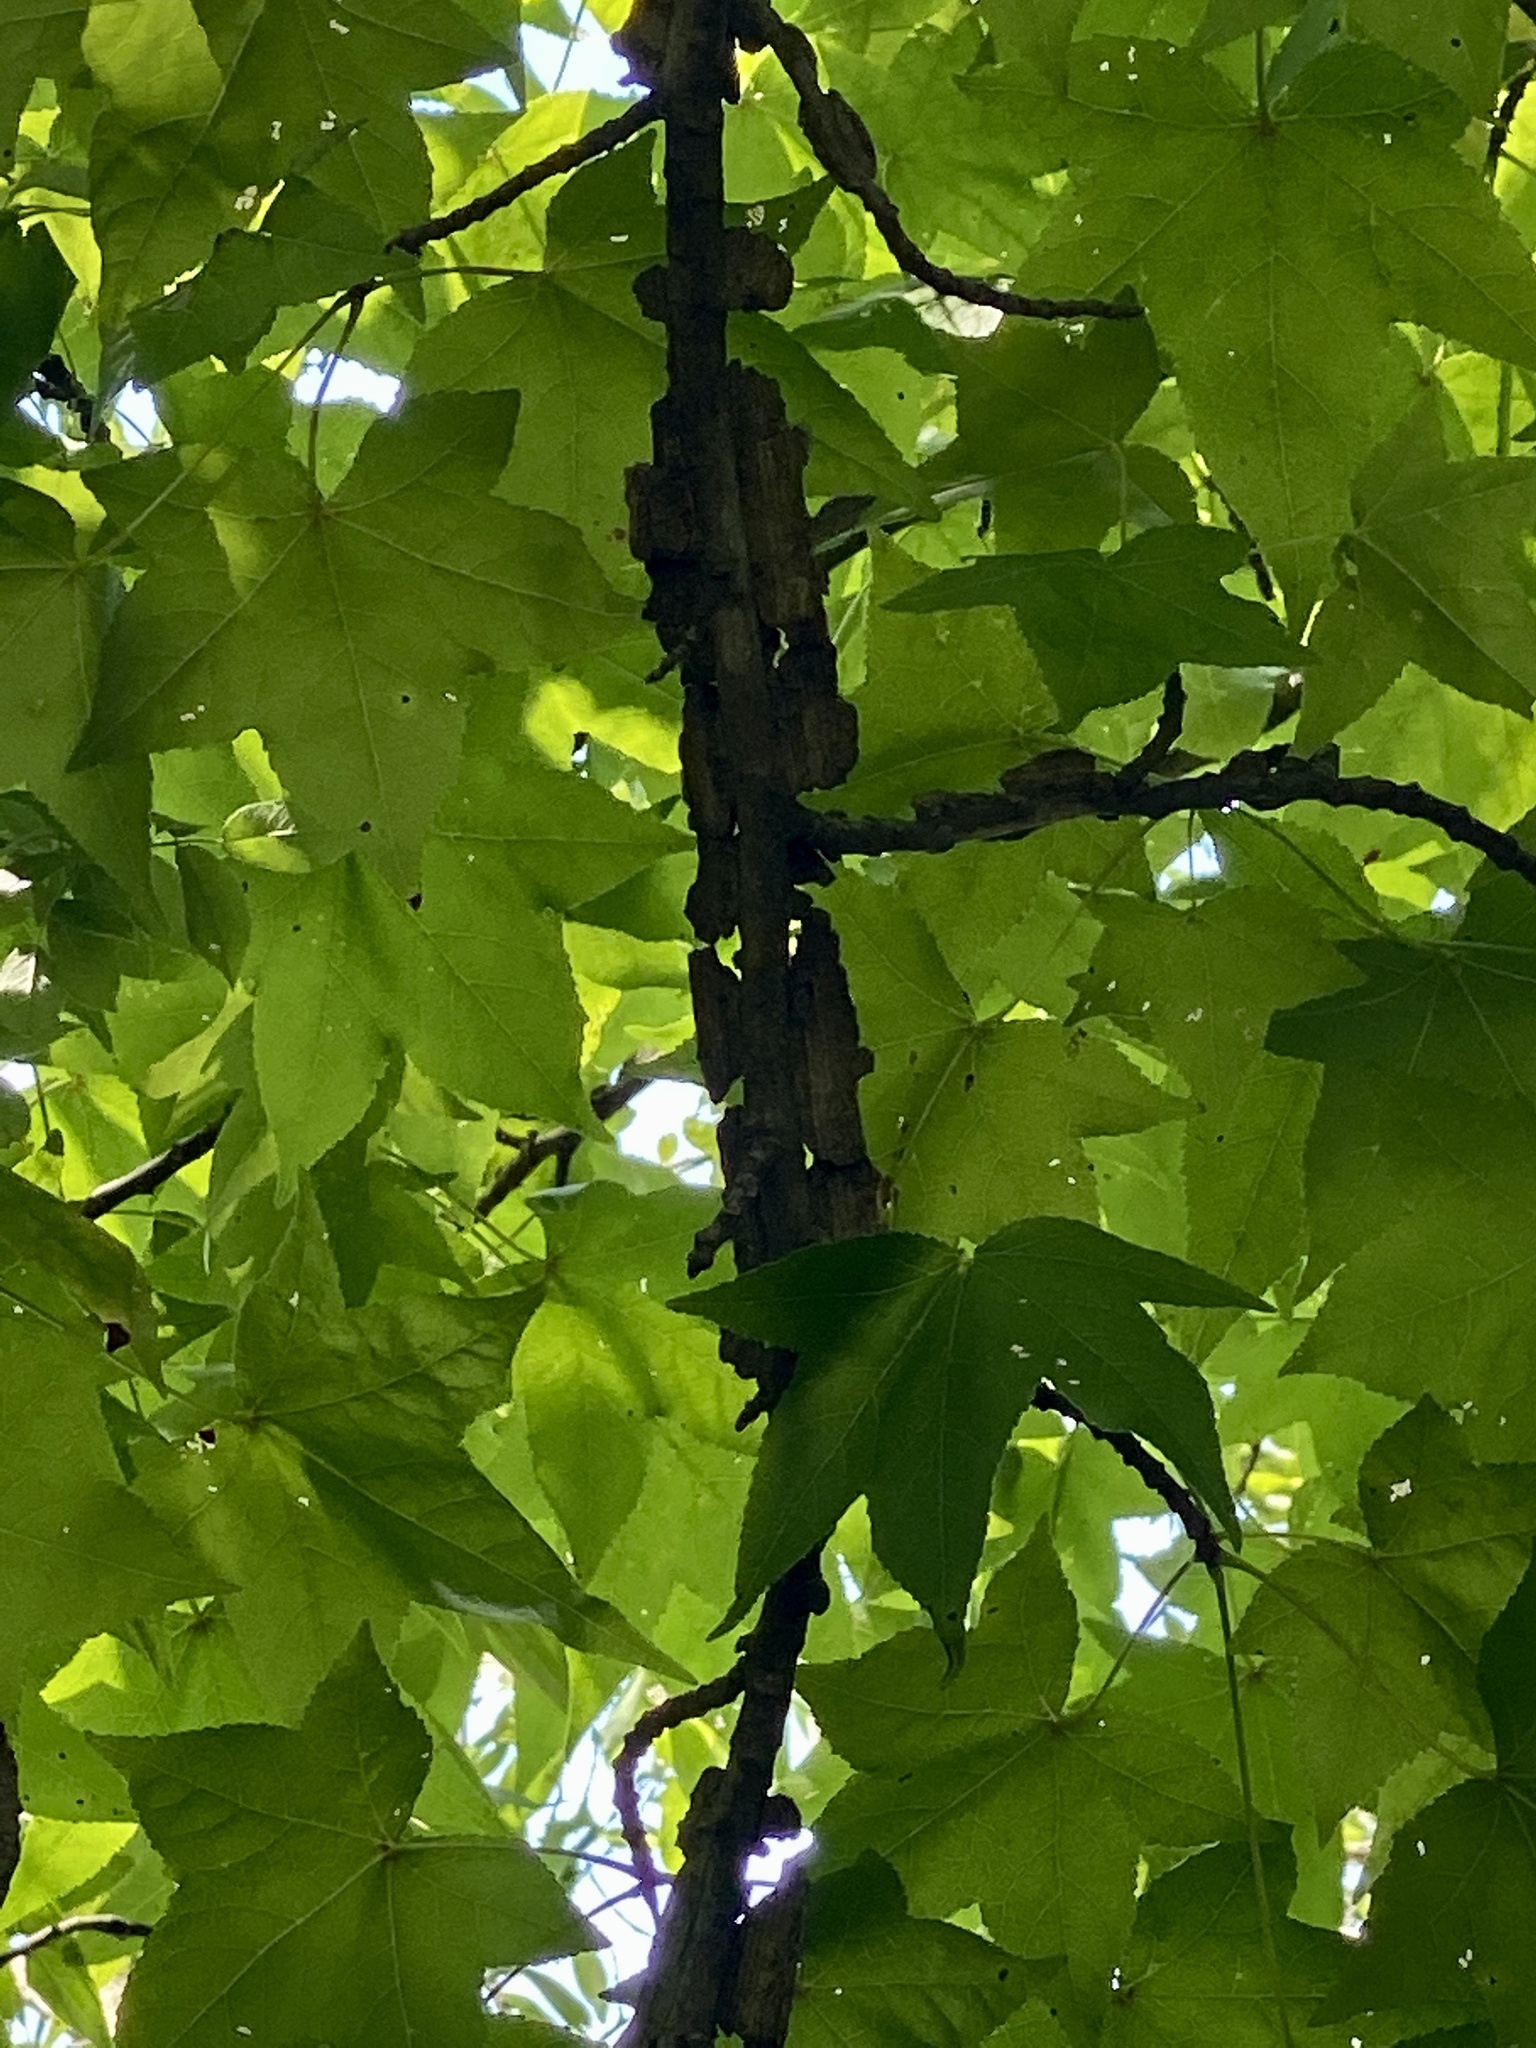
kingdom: Plantae
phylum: Tracheophyta
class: Magnoliopsida
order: Saxifragales
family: Altingiaceae
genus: Liquidambar
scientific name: Liquidambar styraciflua
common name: Sweet gum
